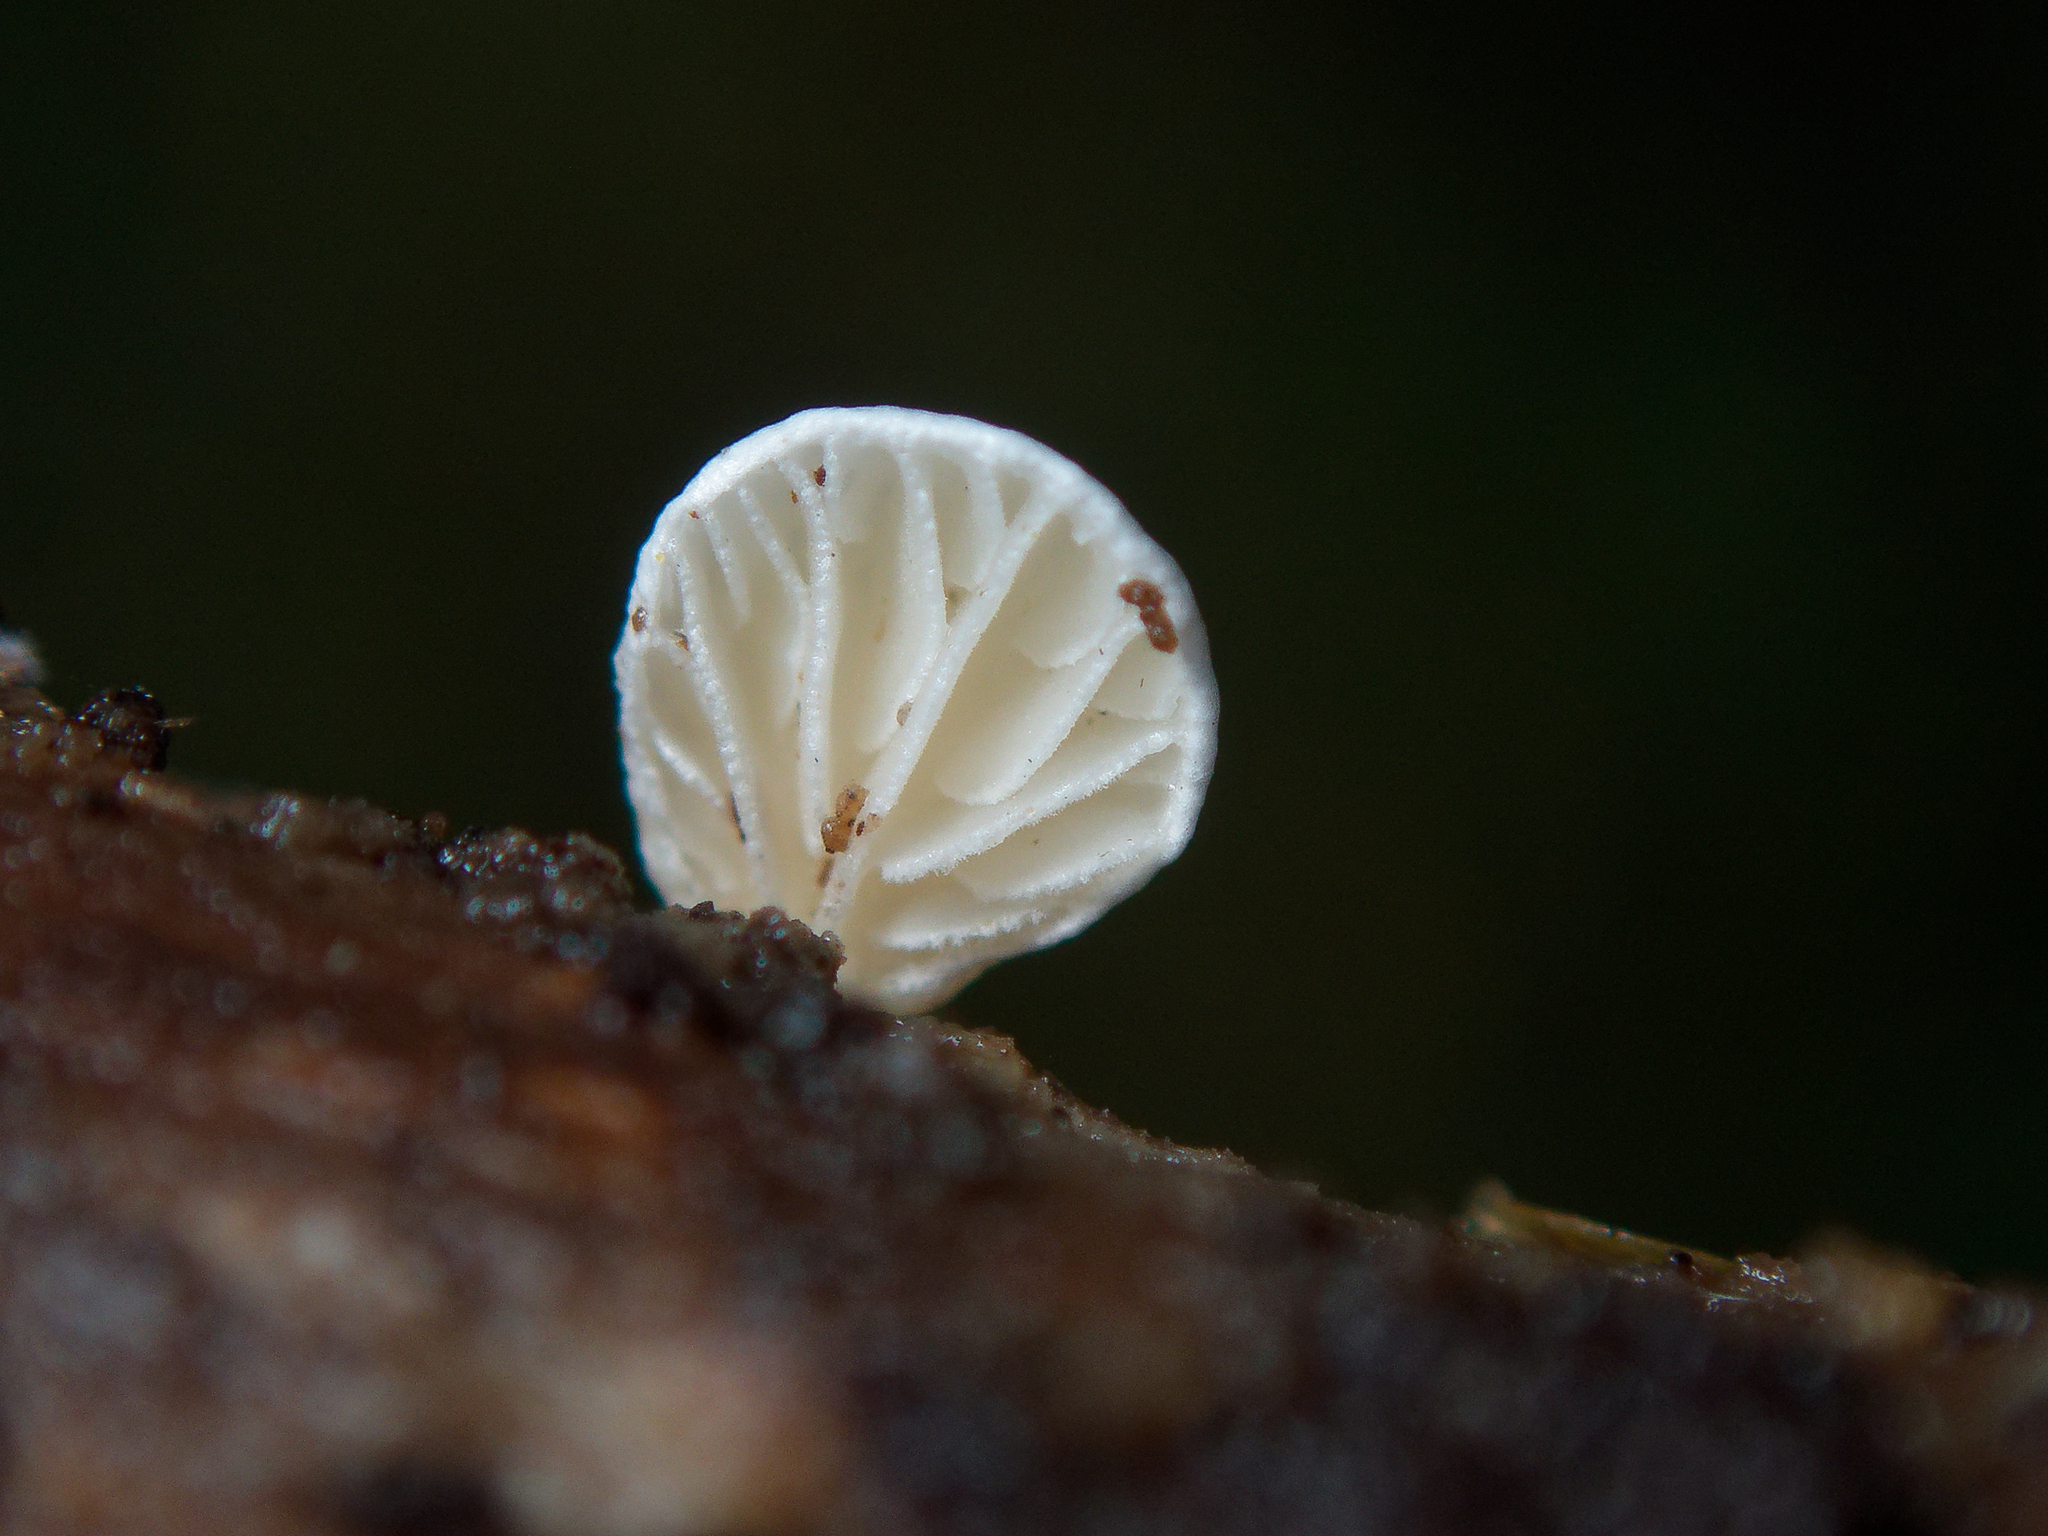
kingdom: Fungi
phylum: Basidiomycota
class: Agaricomycetes
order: Agaricales
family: Cyphellaceae
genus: Cheimonophyllum
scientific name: Cheimonophyllum
